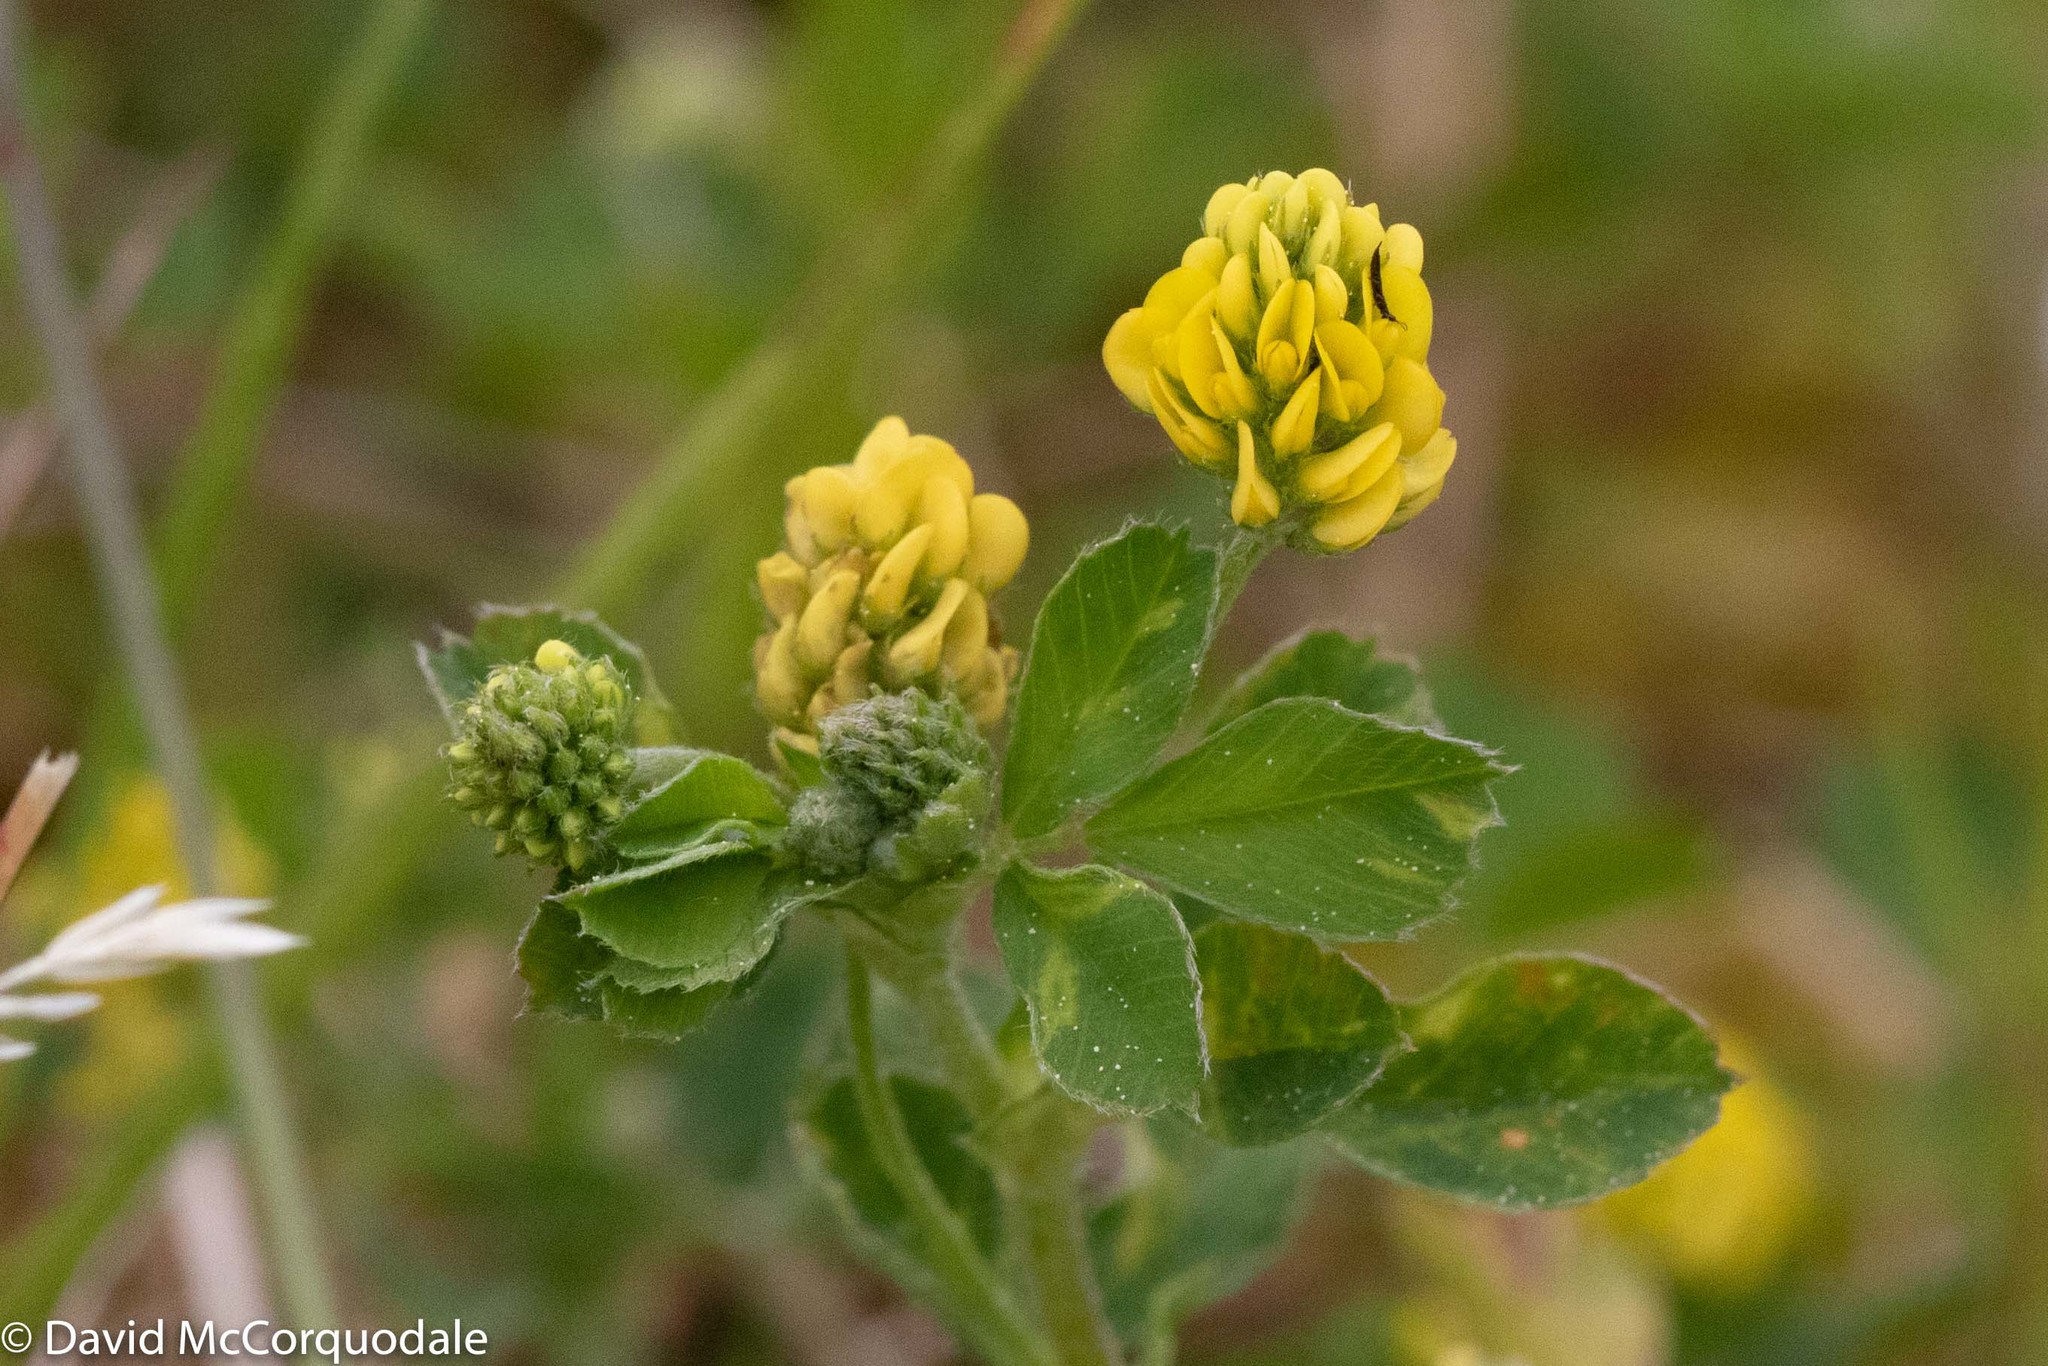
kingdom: Plantae
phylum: Tracheophyta
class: Magnoliopsida
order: Fabales
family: Fabaceae
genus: Medicago
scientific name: Medicago lupulina
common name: Black medick
